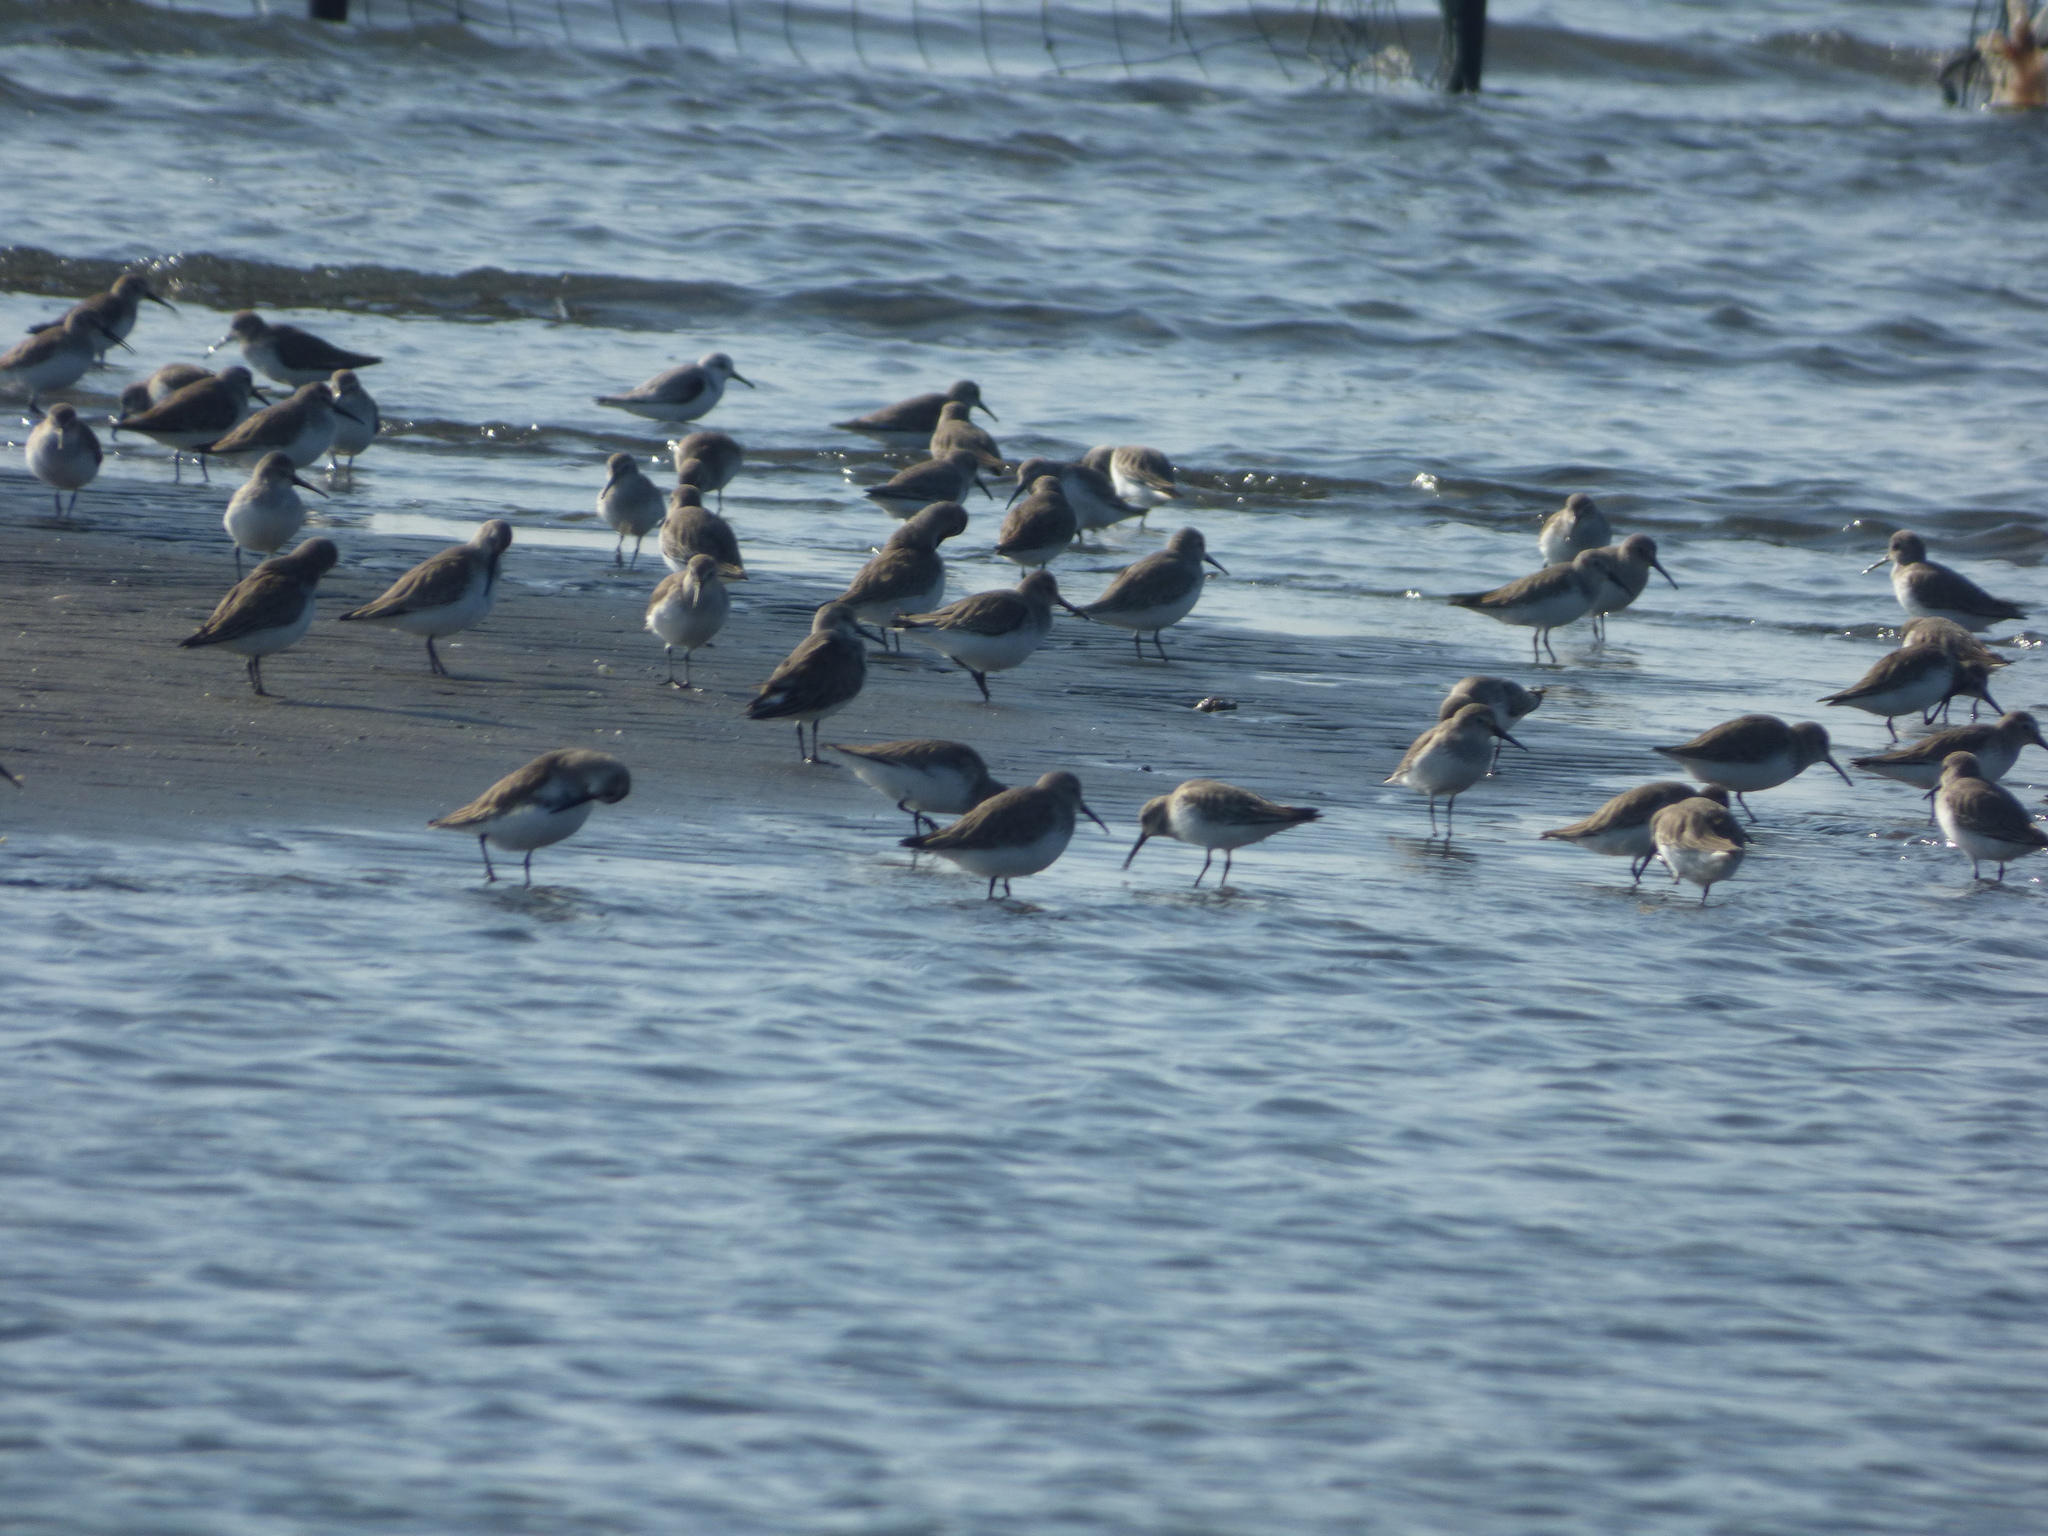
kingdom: Animalia
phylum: Chordata
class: Aves
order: Charadriiformes
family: Scolopacidae
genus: Calidris
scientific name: Calidris alpina
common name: Dunlin
